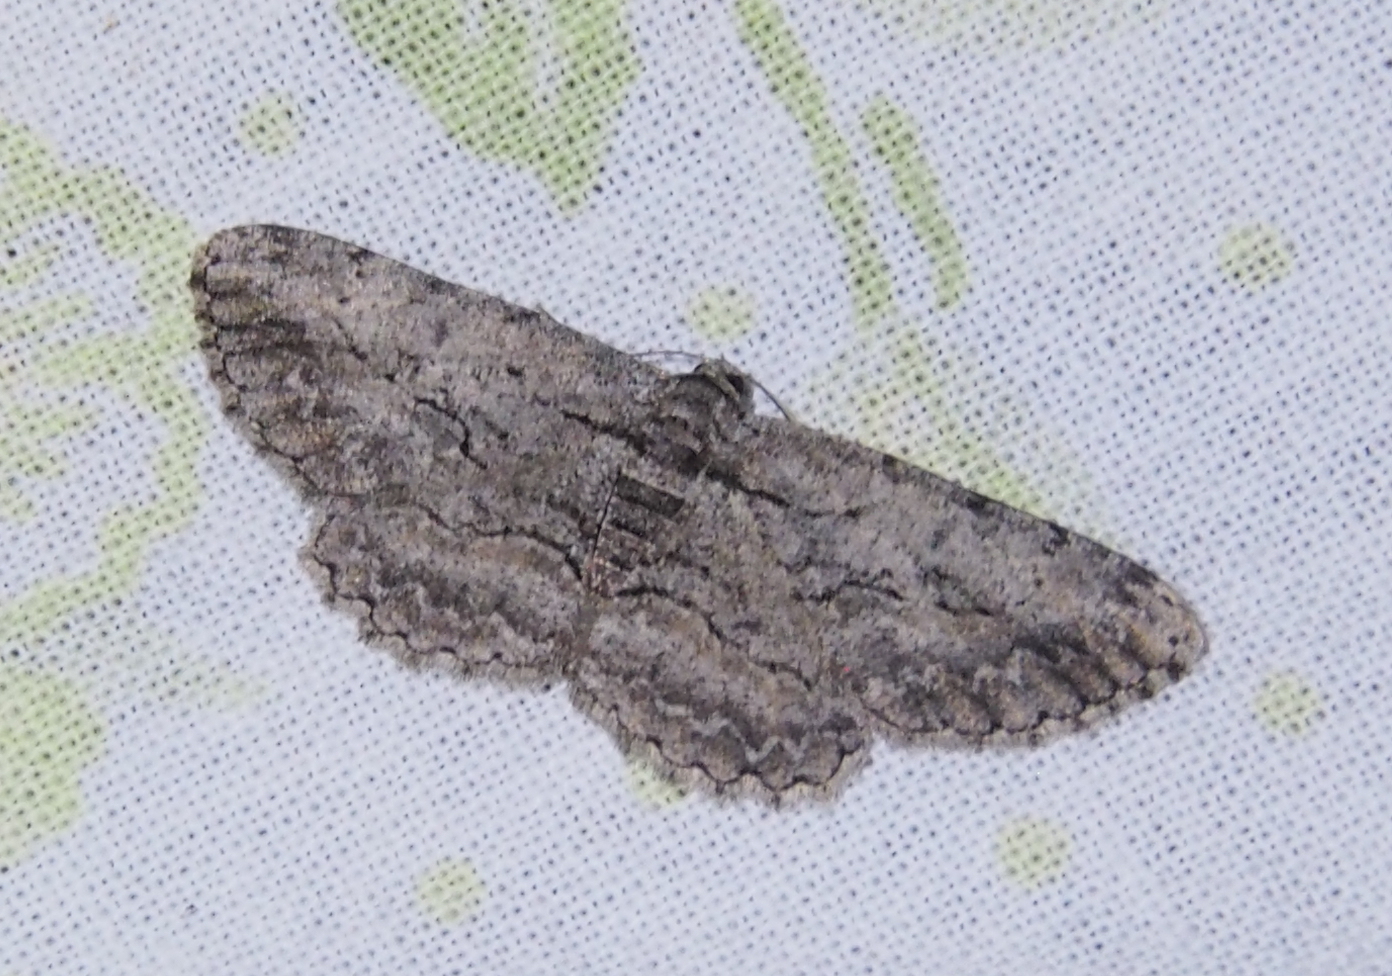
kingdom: Animalia
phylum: Arthropoda
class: Insecta
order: Lepidoptera
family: Geometridae
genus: Anavitrinella
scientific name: Anavitrinella pampinaria
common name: Common gray
